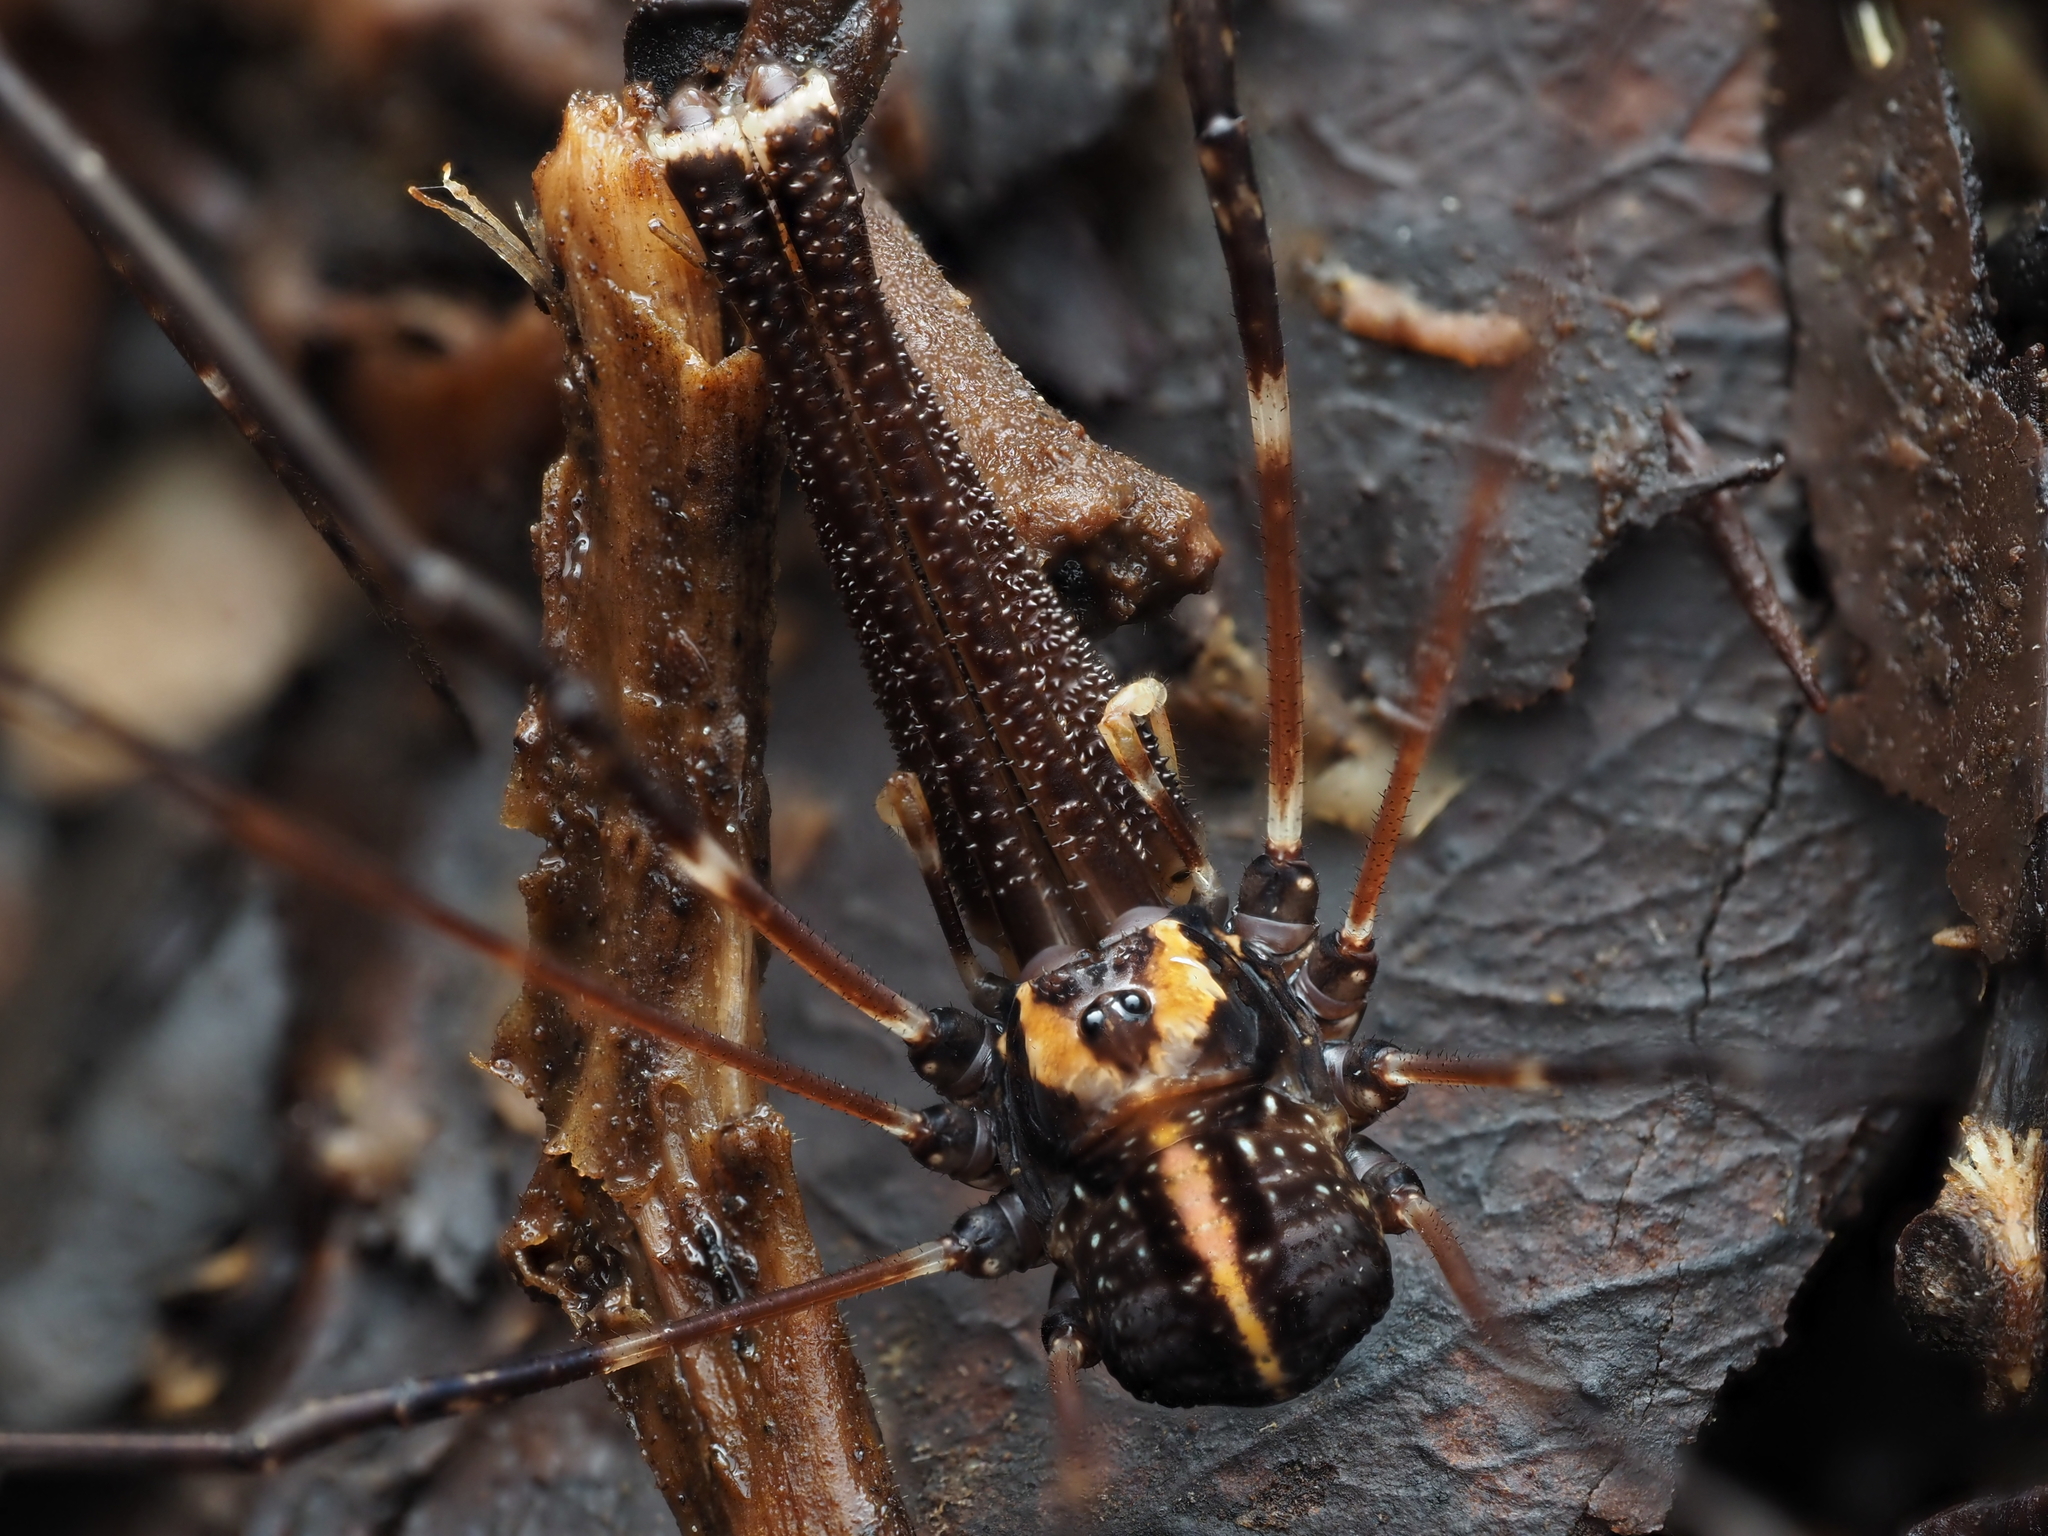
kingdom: Animalia
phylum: Arthropoda
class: Arachnida
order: Opiliones
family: Neopilionidae
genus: Forsteropsalis
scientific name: Forsteropsalis pureora
